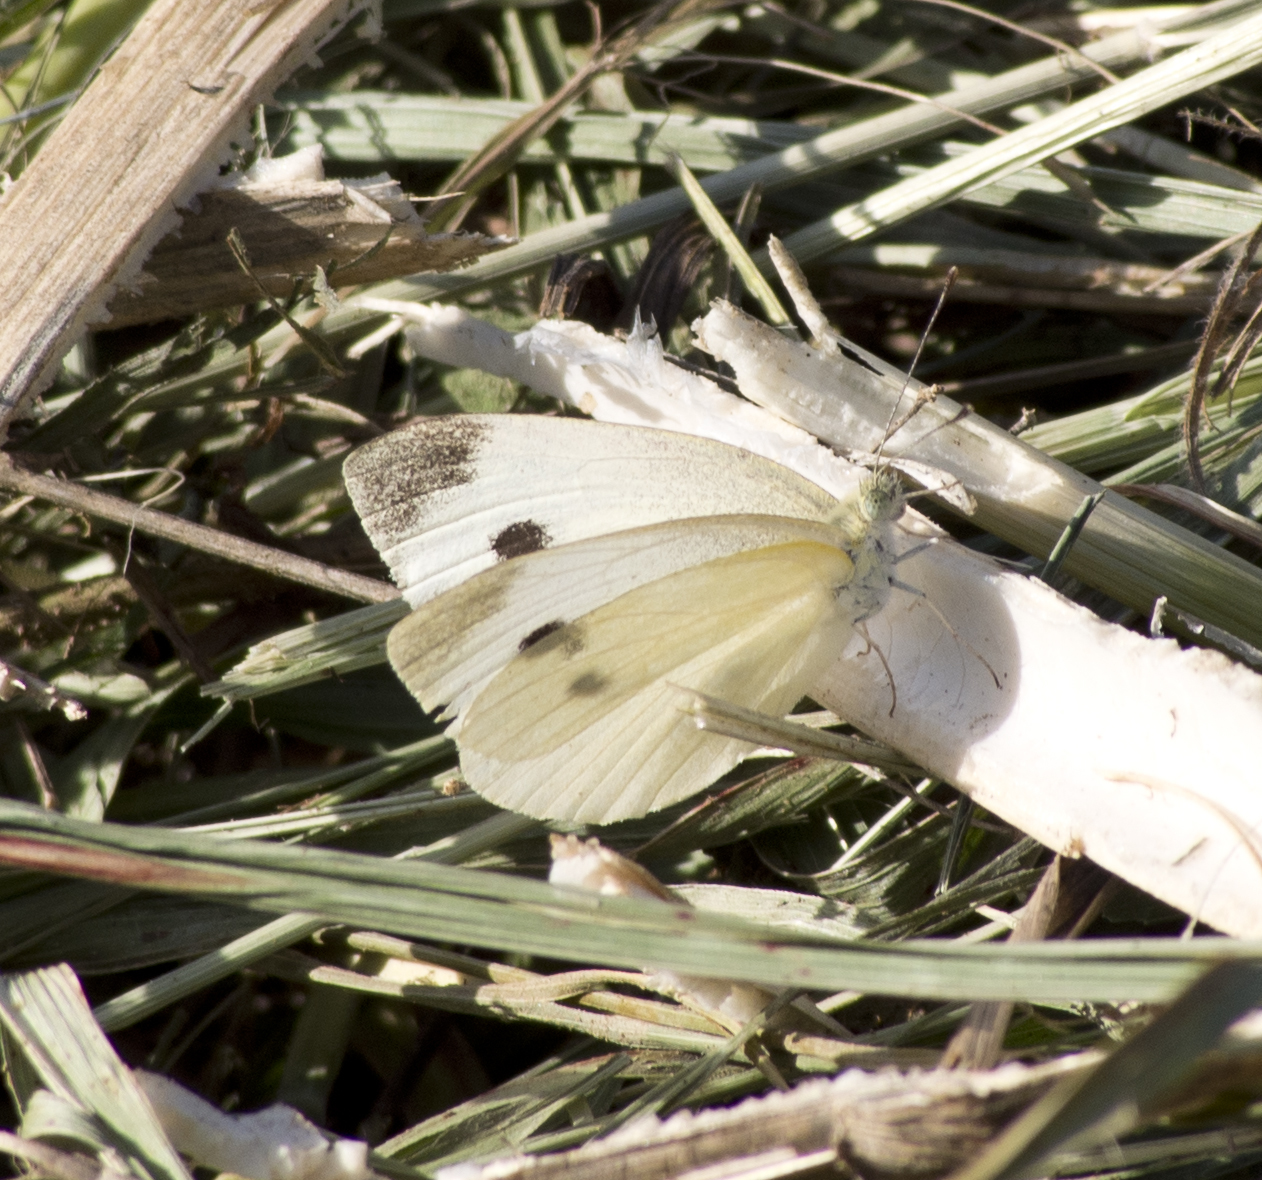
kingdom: Animalia
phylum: Arthropoda
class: Insecta
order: Lepidoptera
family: Pieridae
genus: Pieris
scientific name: Pieris rapae
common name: Small white
